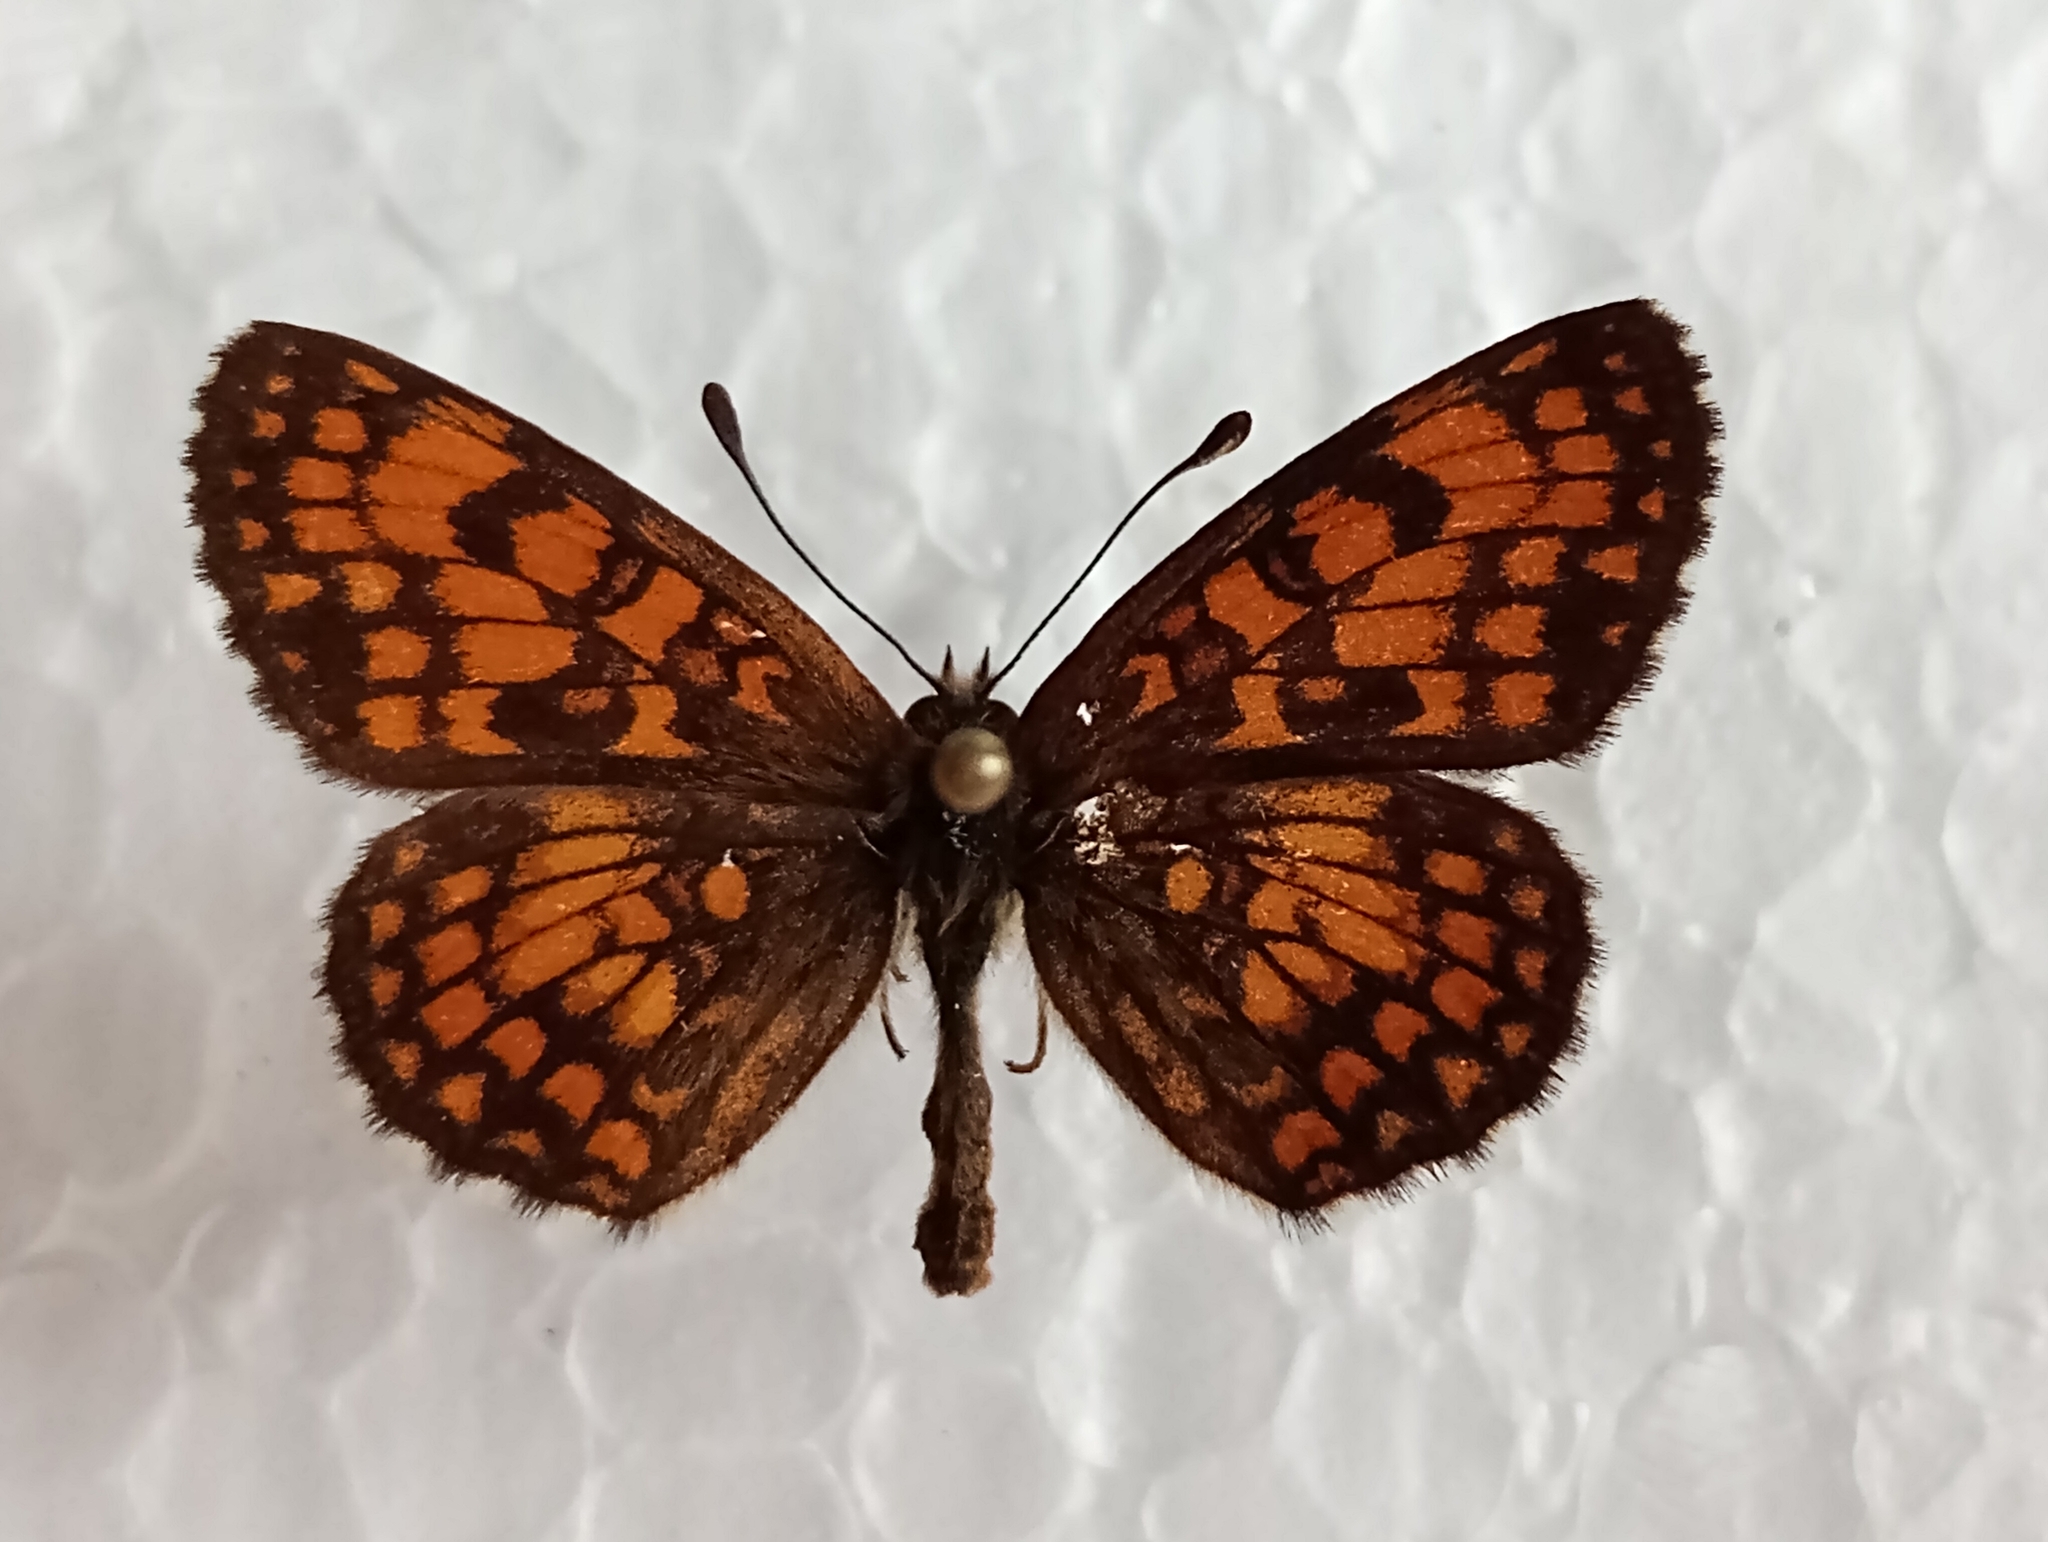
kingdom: Animalia
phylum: Arthropoda
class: Insecta
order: Lepidoptera
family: Nymphalidae
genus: Mellicta
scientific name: Mellicta athalia
